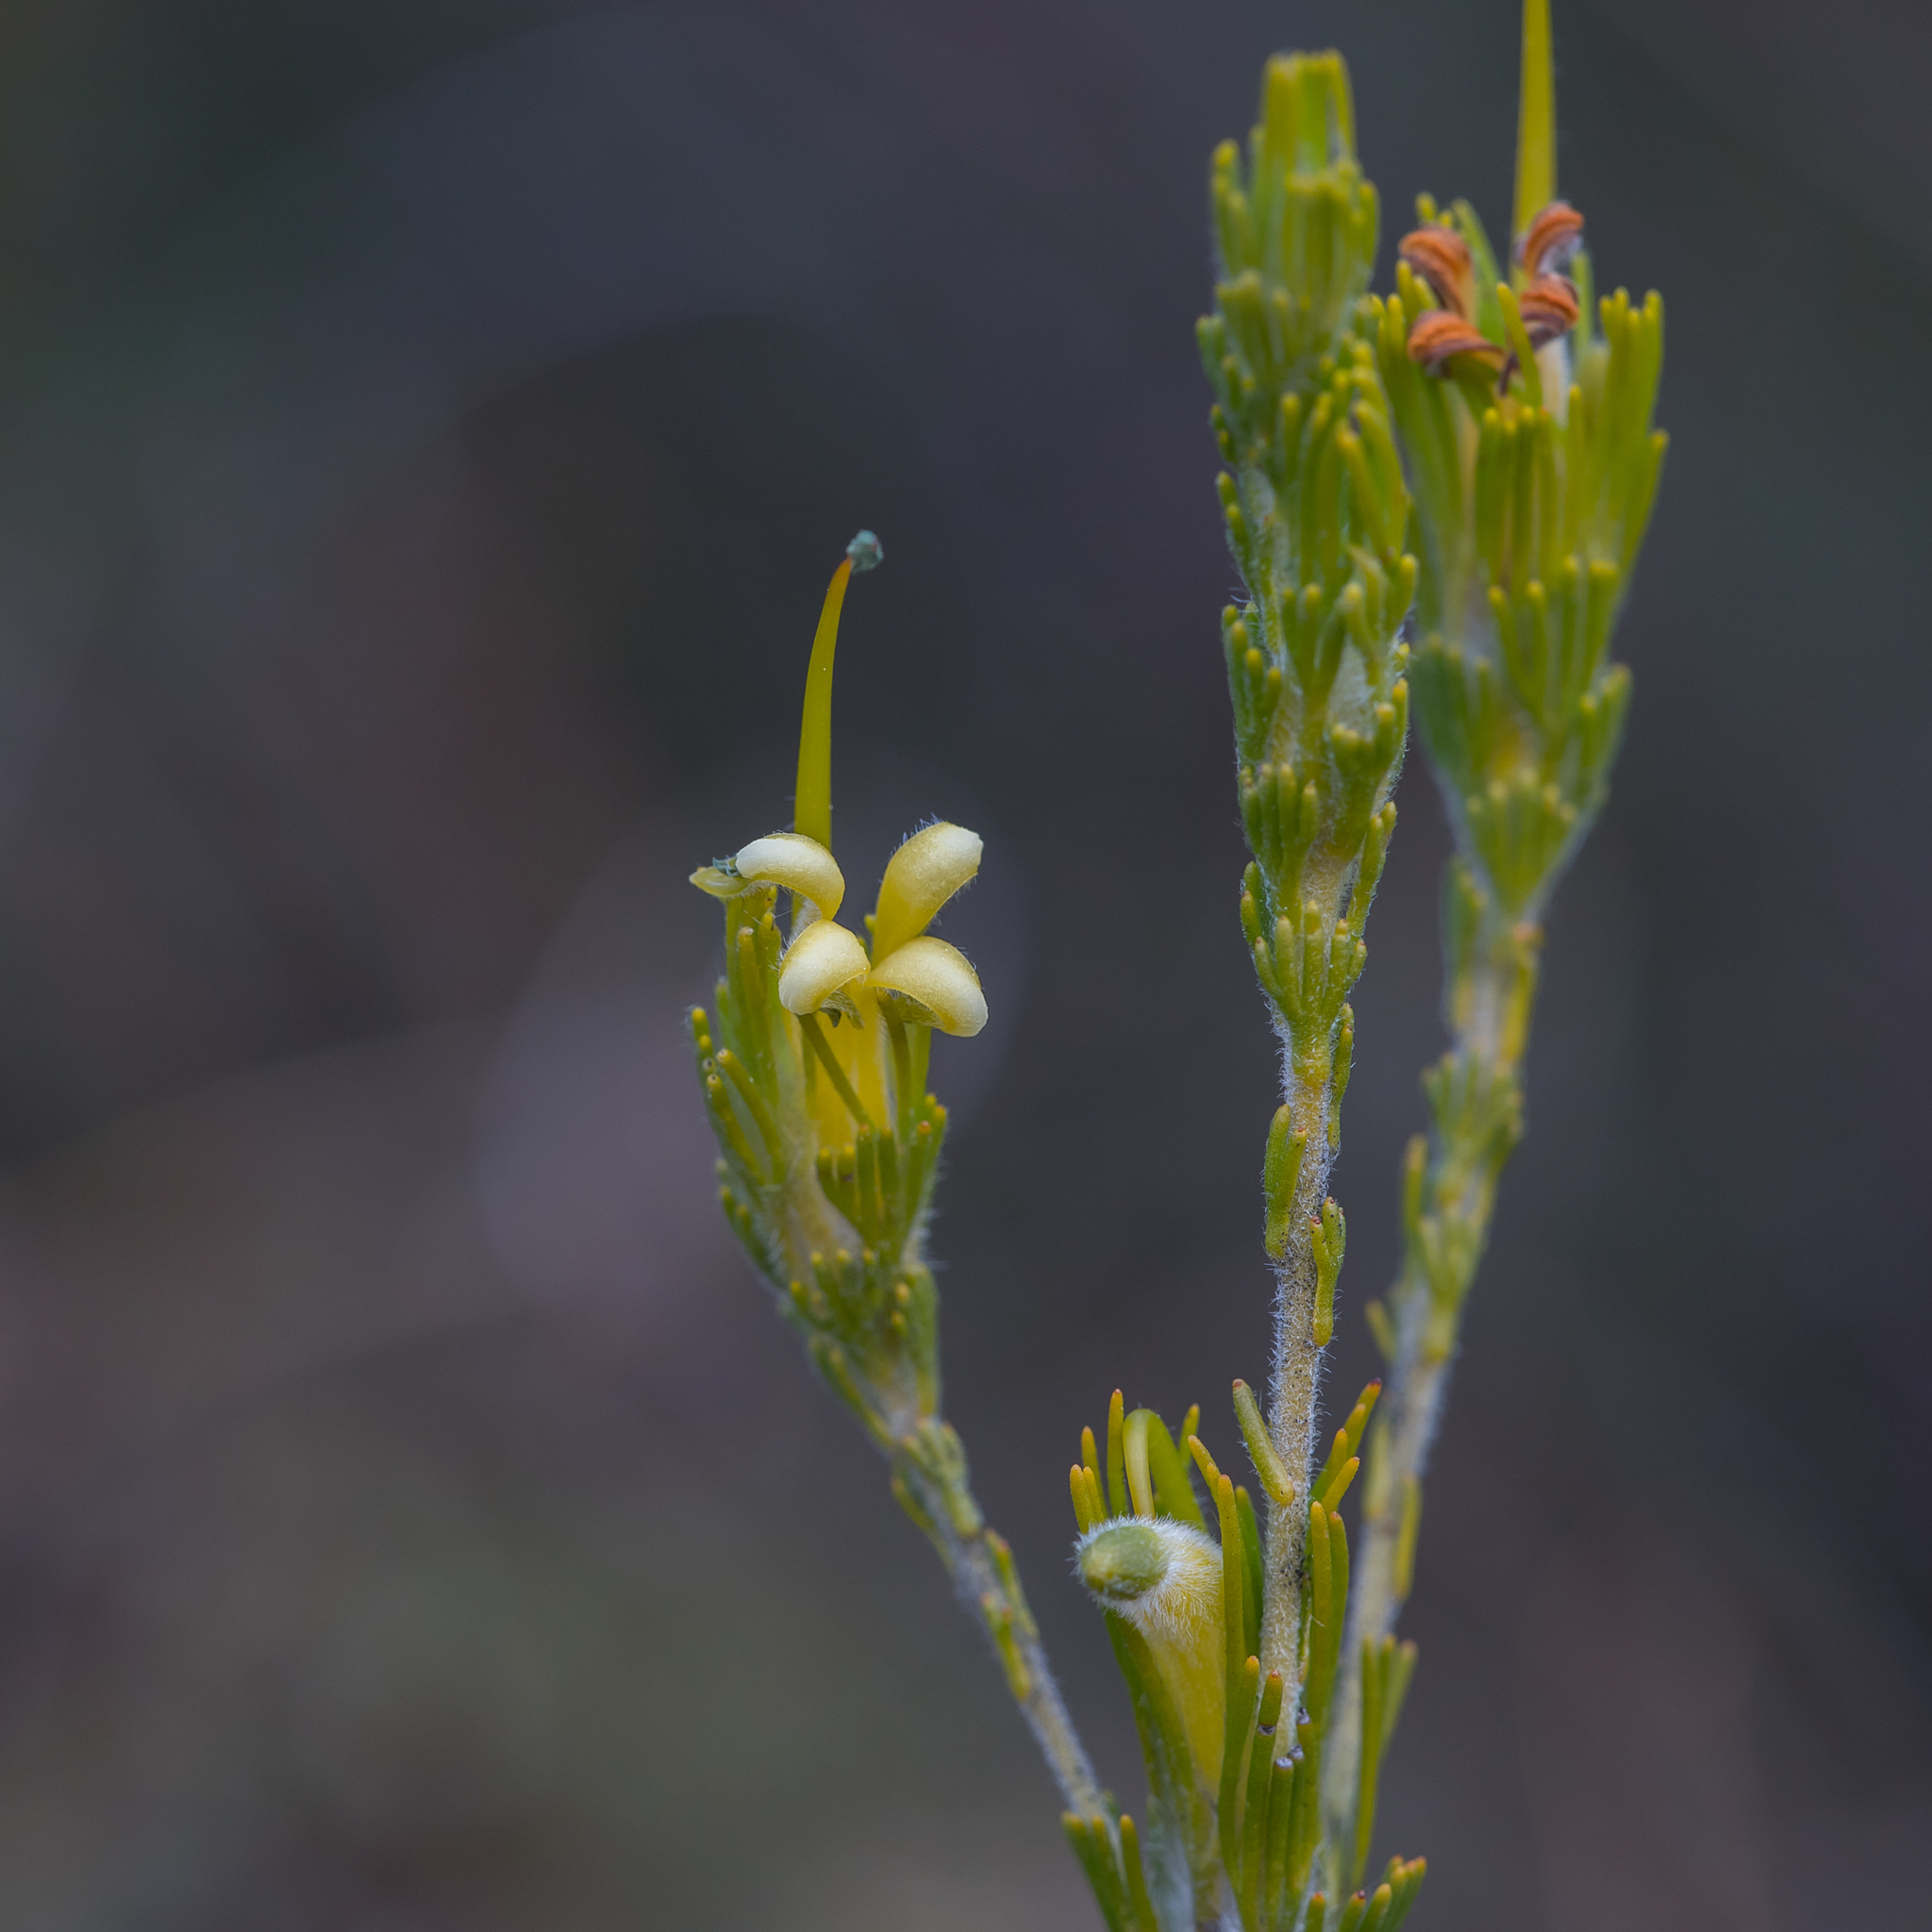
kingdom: Plantae
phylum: Tracheophyta
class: Magnoliopsida
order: Proteales
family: Proteaceae
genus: Adenanthos
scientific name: Adenanthos terminalis
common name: Yellow gland-flower
